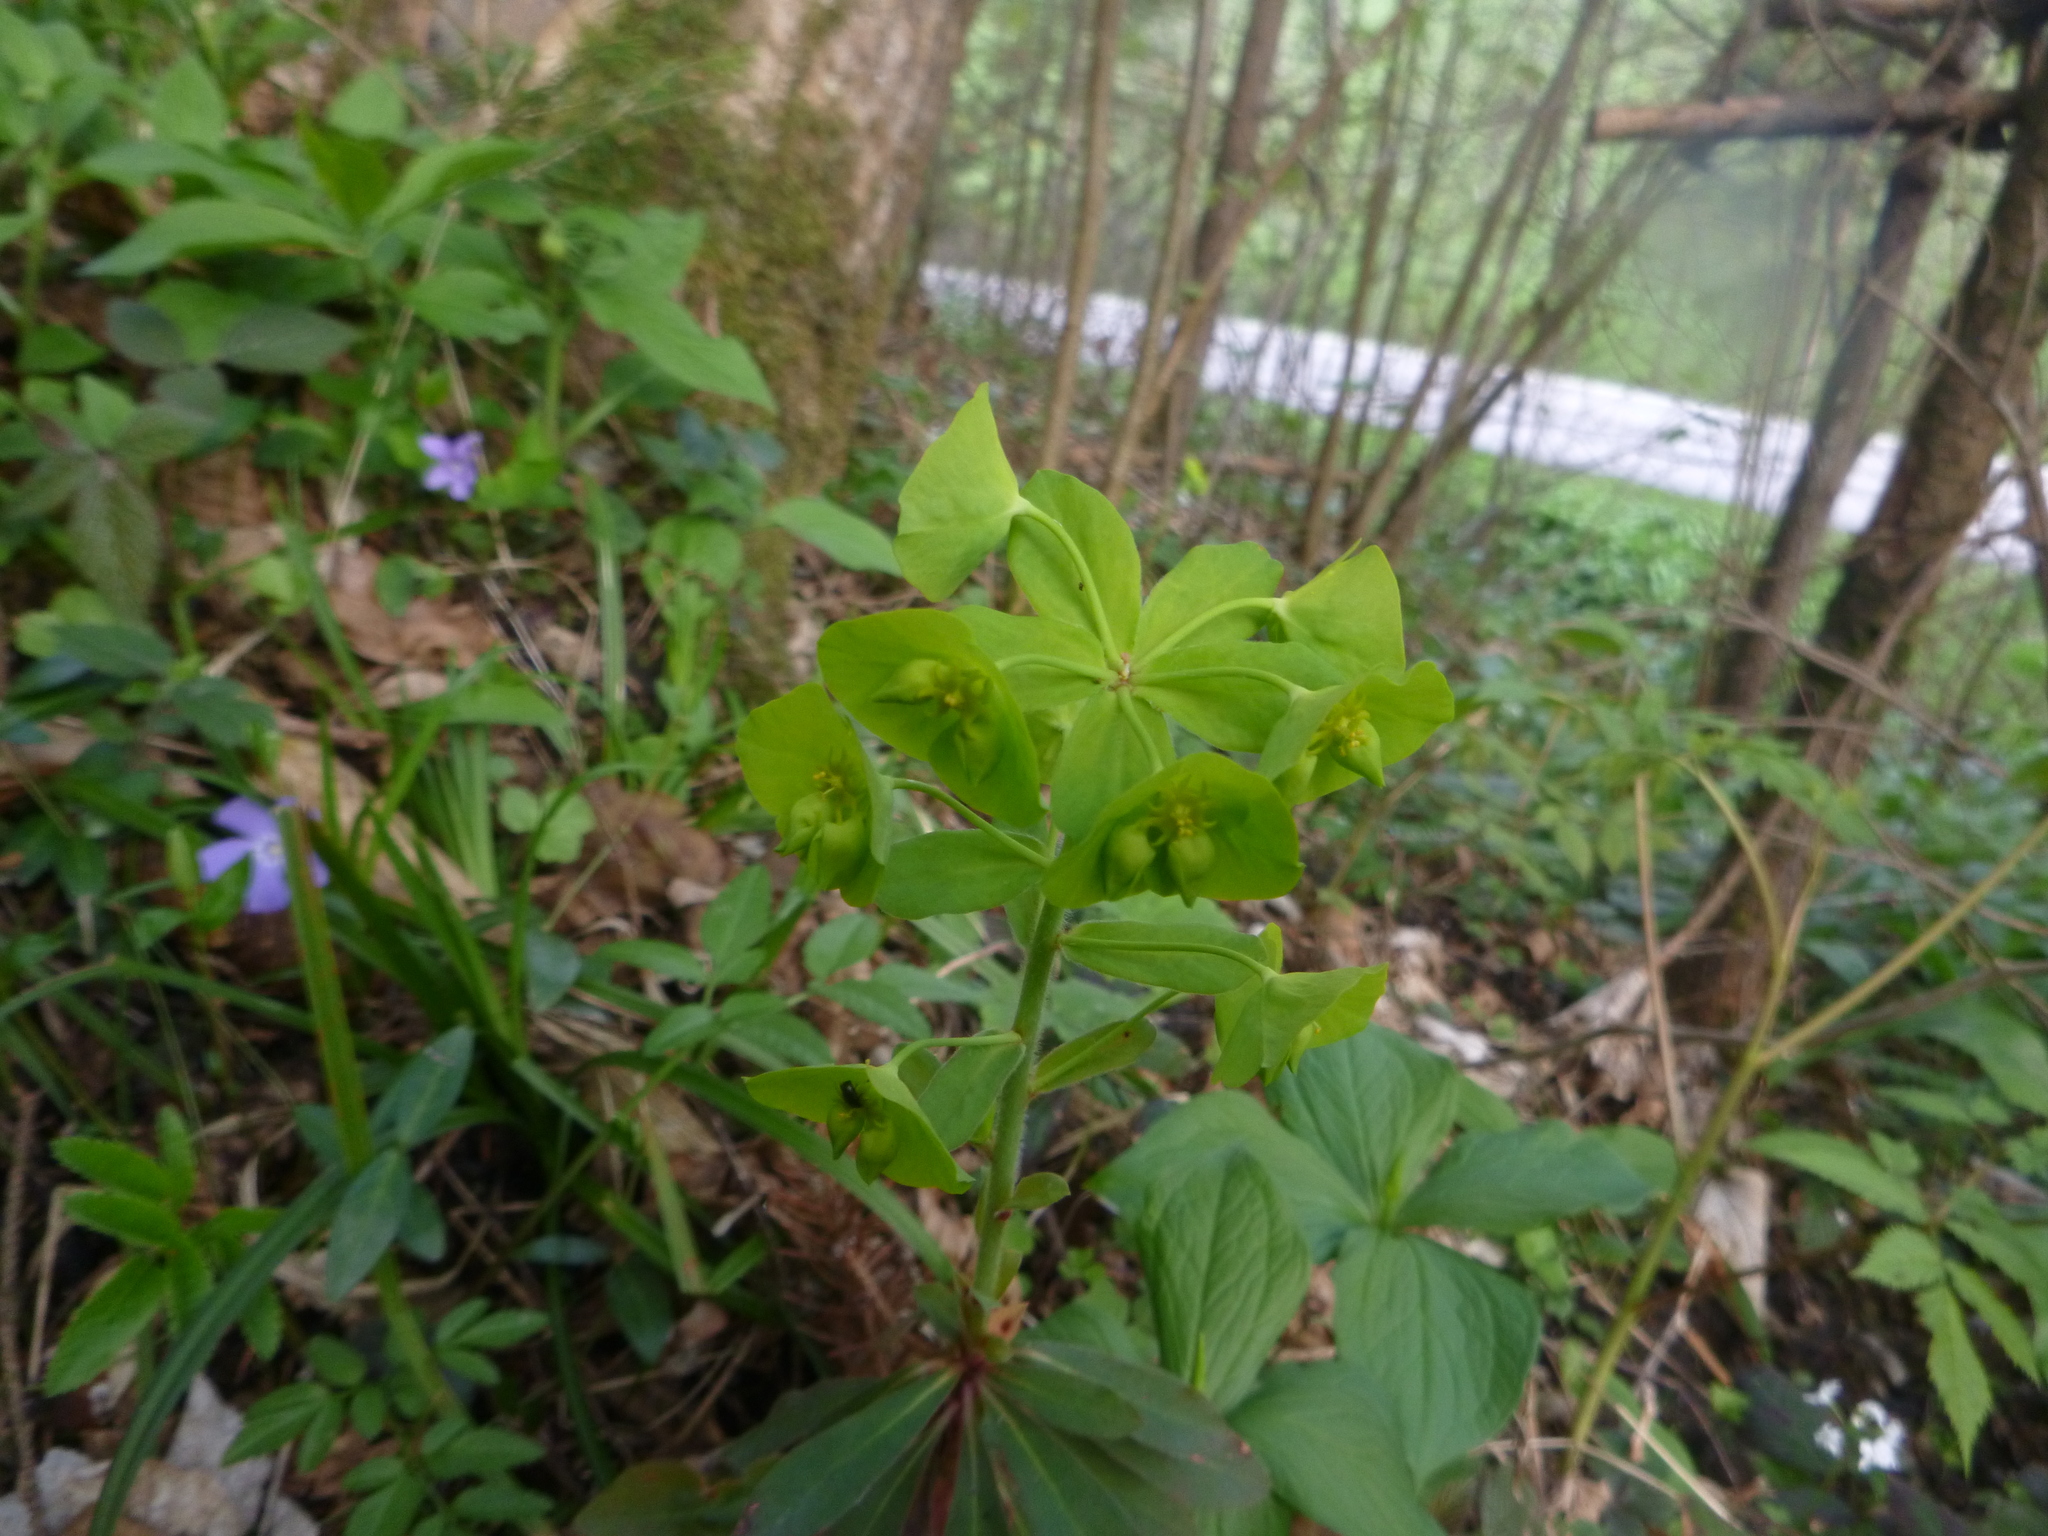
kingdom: Plantae
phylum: Tracheophyta
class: Magnoliopsida
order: Malpighiales
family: Euphorbiaceae
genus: Euphorbia
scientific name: Euphorbia amygdaloides
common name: Wood spurge
